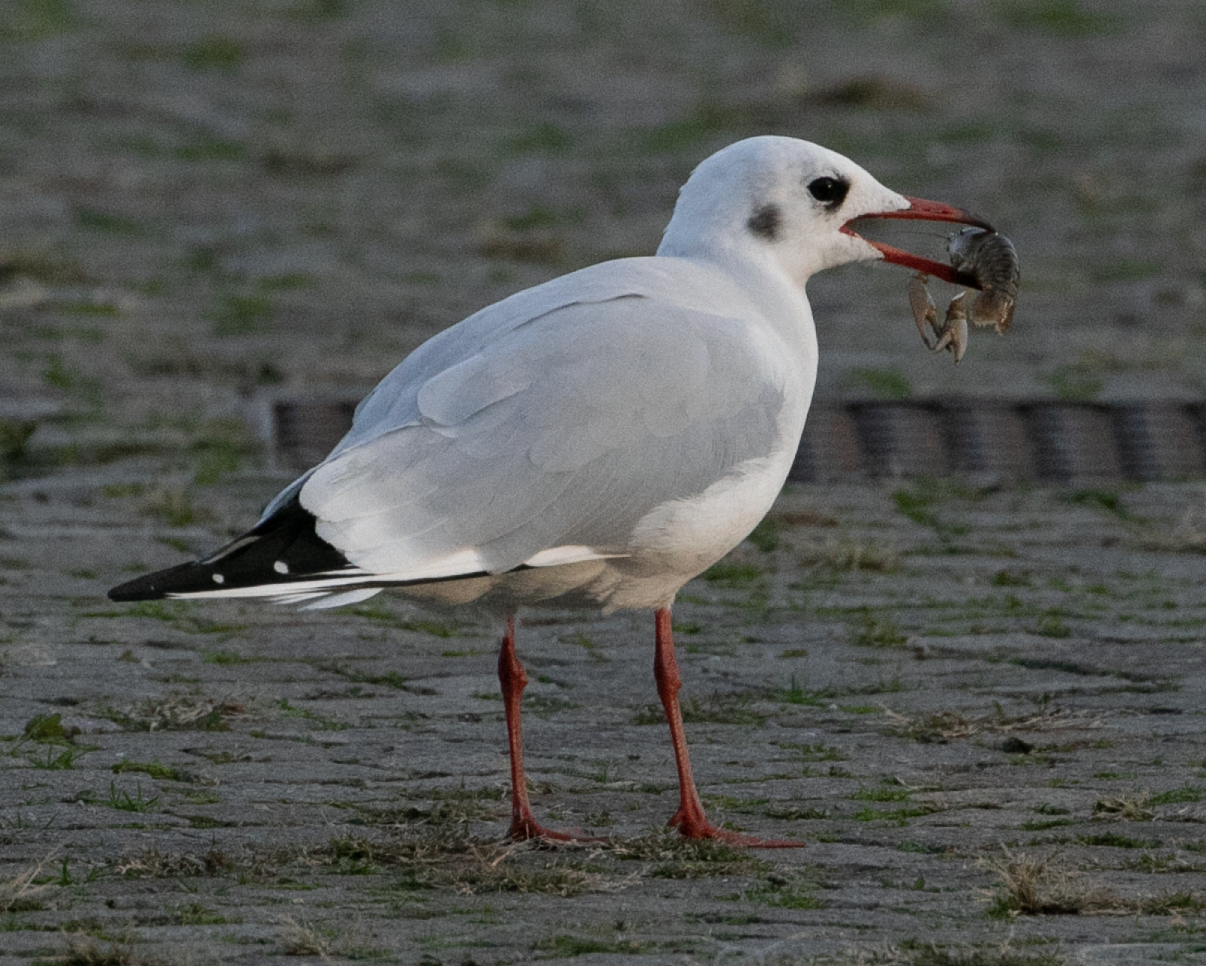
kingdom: Animalia
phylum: Chordata
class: Aves
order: Charadriiformes
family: Laridae
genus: Chroicocephalus
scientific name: Chroicocephalus ridibundus
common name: Black-headed gull
